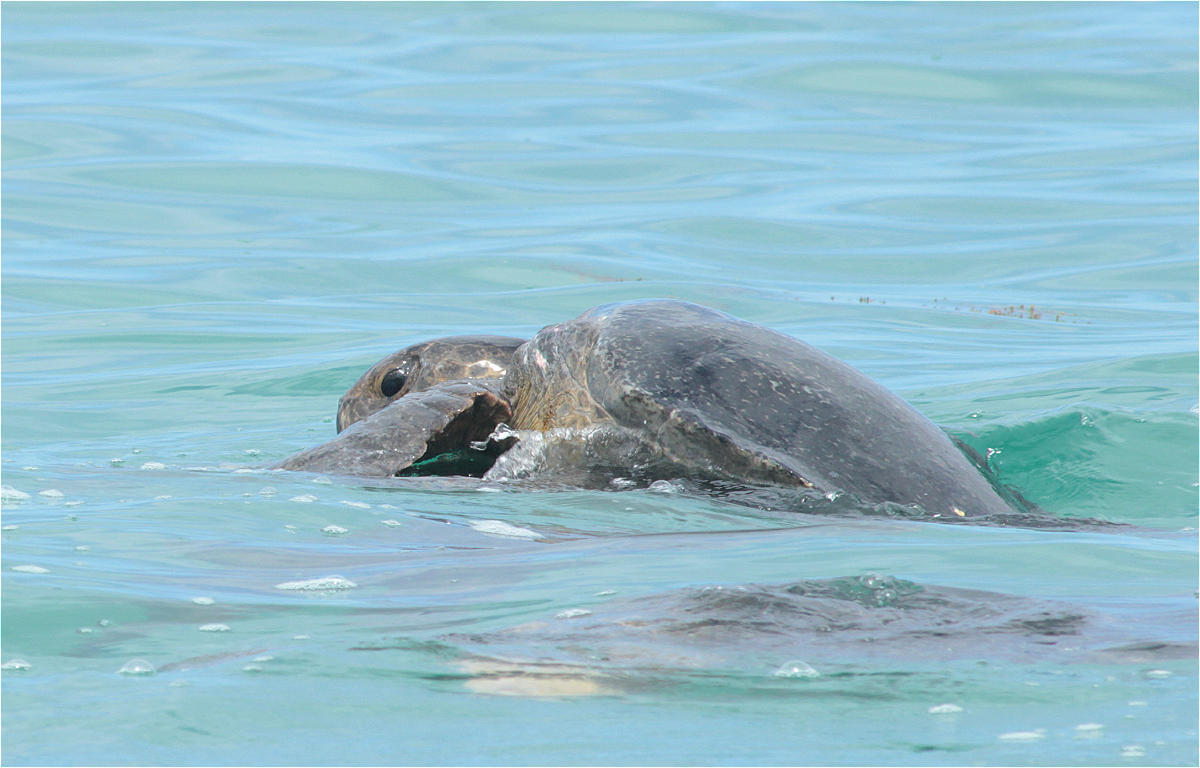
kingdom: Animalia
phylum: Chordata
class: Testudines
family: Cheloniidae
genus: Chelonia
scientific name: Chelonia mydas
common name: Green turtle
